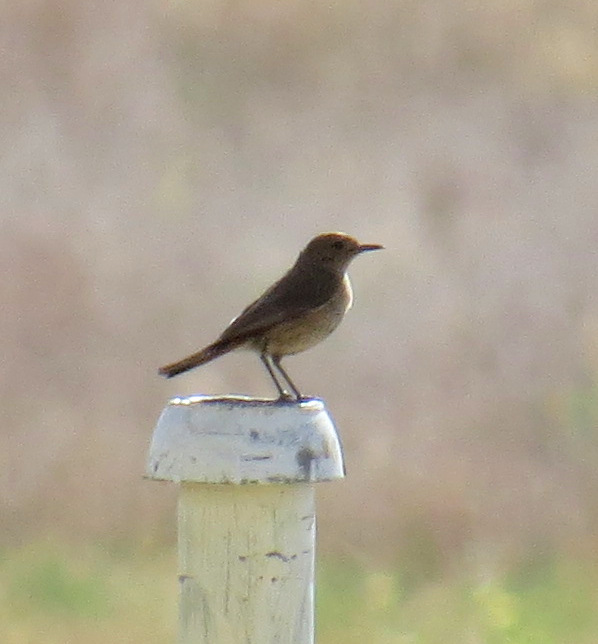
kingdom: Animalia
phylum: Chordata
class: Aves
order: Passeriformes
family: Muscicapidae
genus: Oenanthe
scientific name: Oenanthe familiaris
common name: Familiar chat
